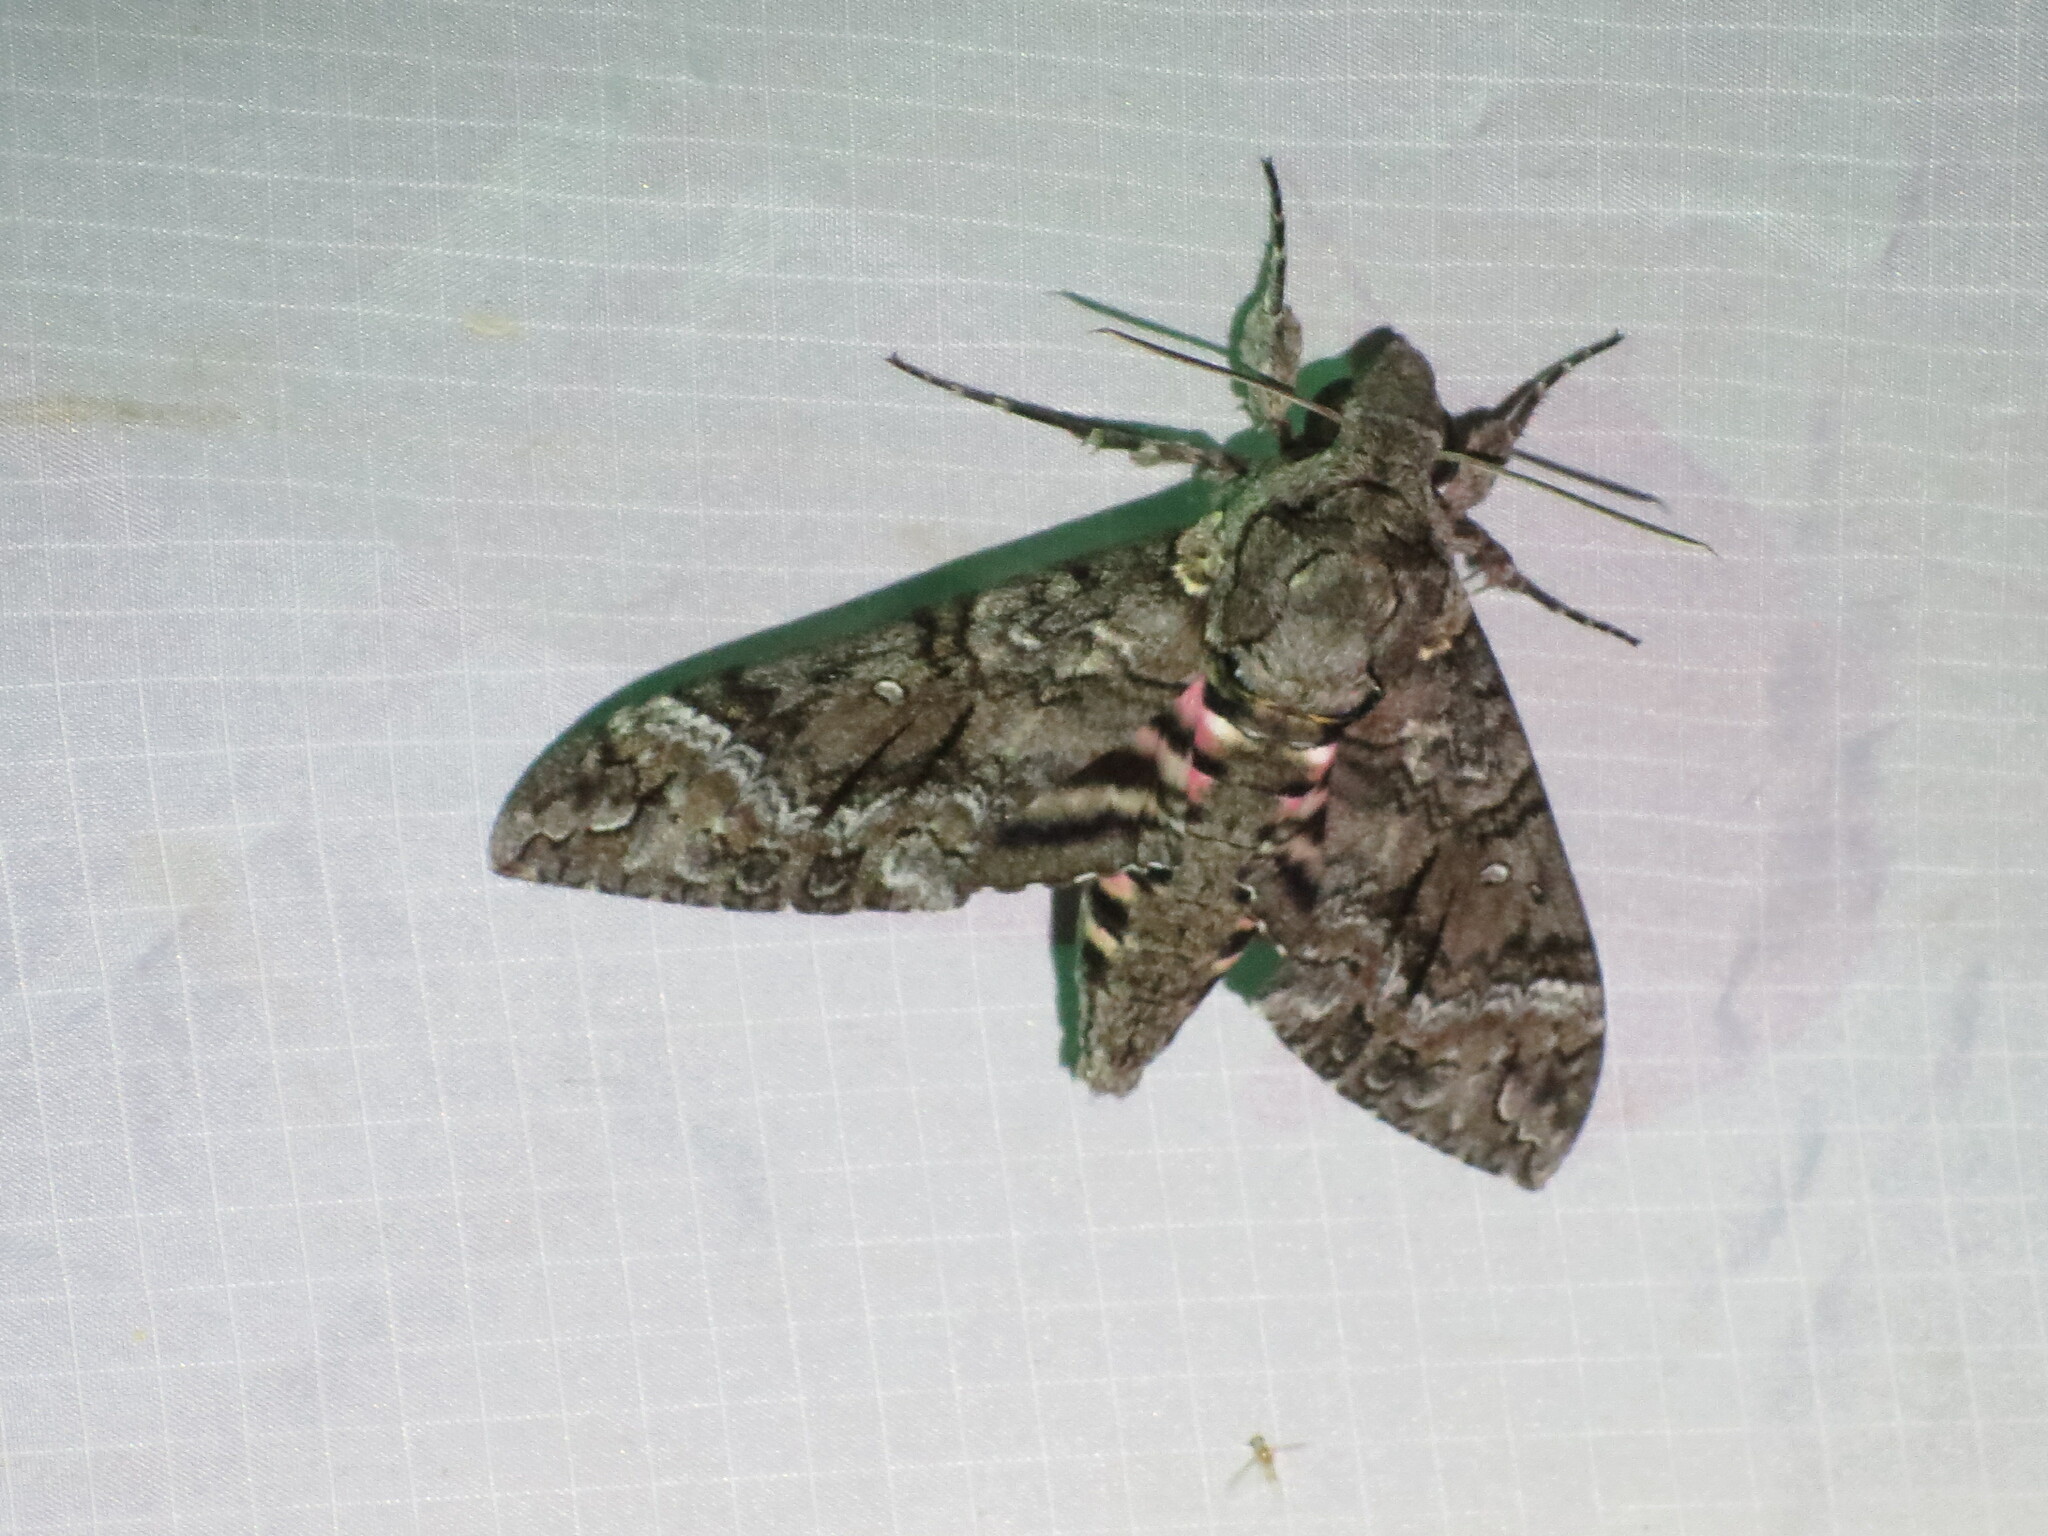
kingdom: Animalia
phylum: Arthropoda
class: Insecta
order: Lepidoptera
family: Sphingidae
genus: Agrius
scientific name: Agrius cingulata
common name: Pink-spotted hawkmoth
